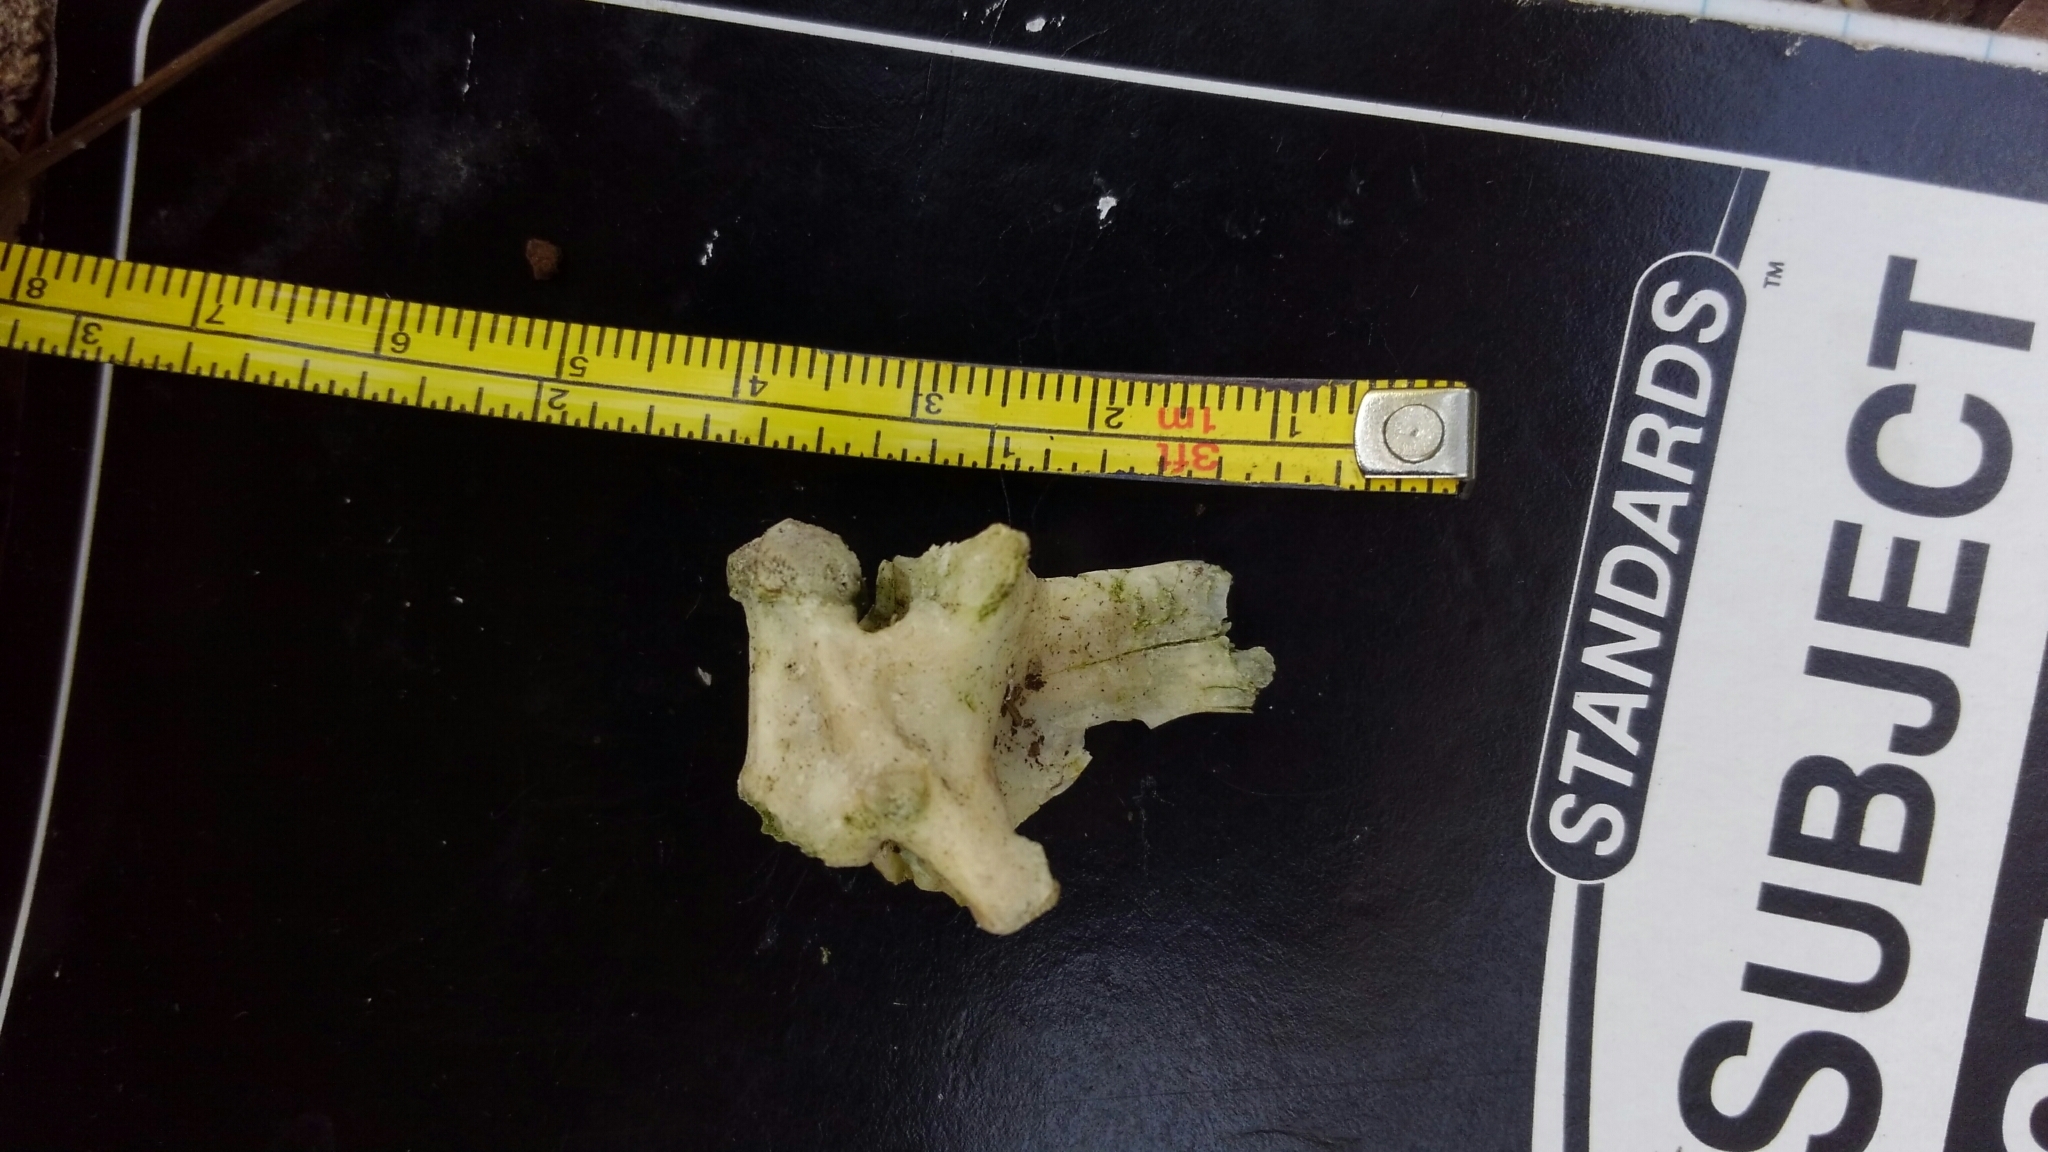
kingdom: Animalia
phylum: Chordata
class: Squamata
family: Iguanidae
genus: Iguana
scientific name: Iguana iguana
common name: Green iguana
